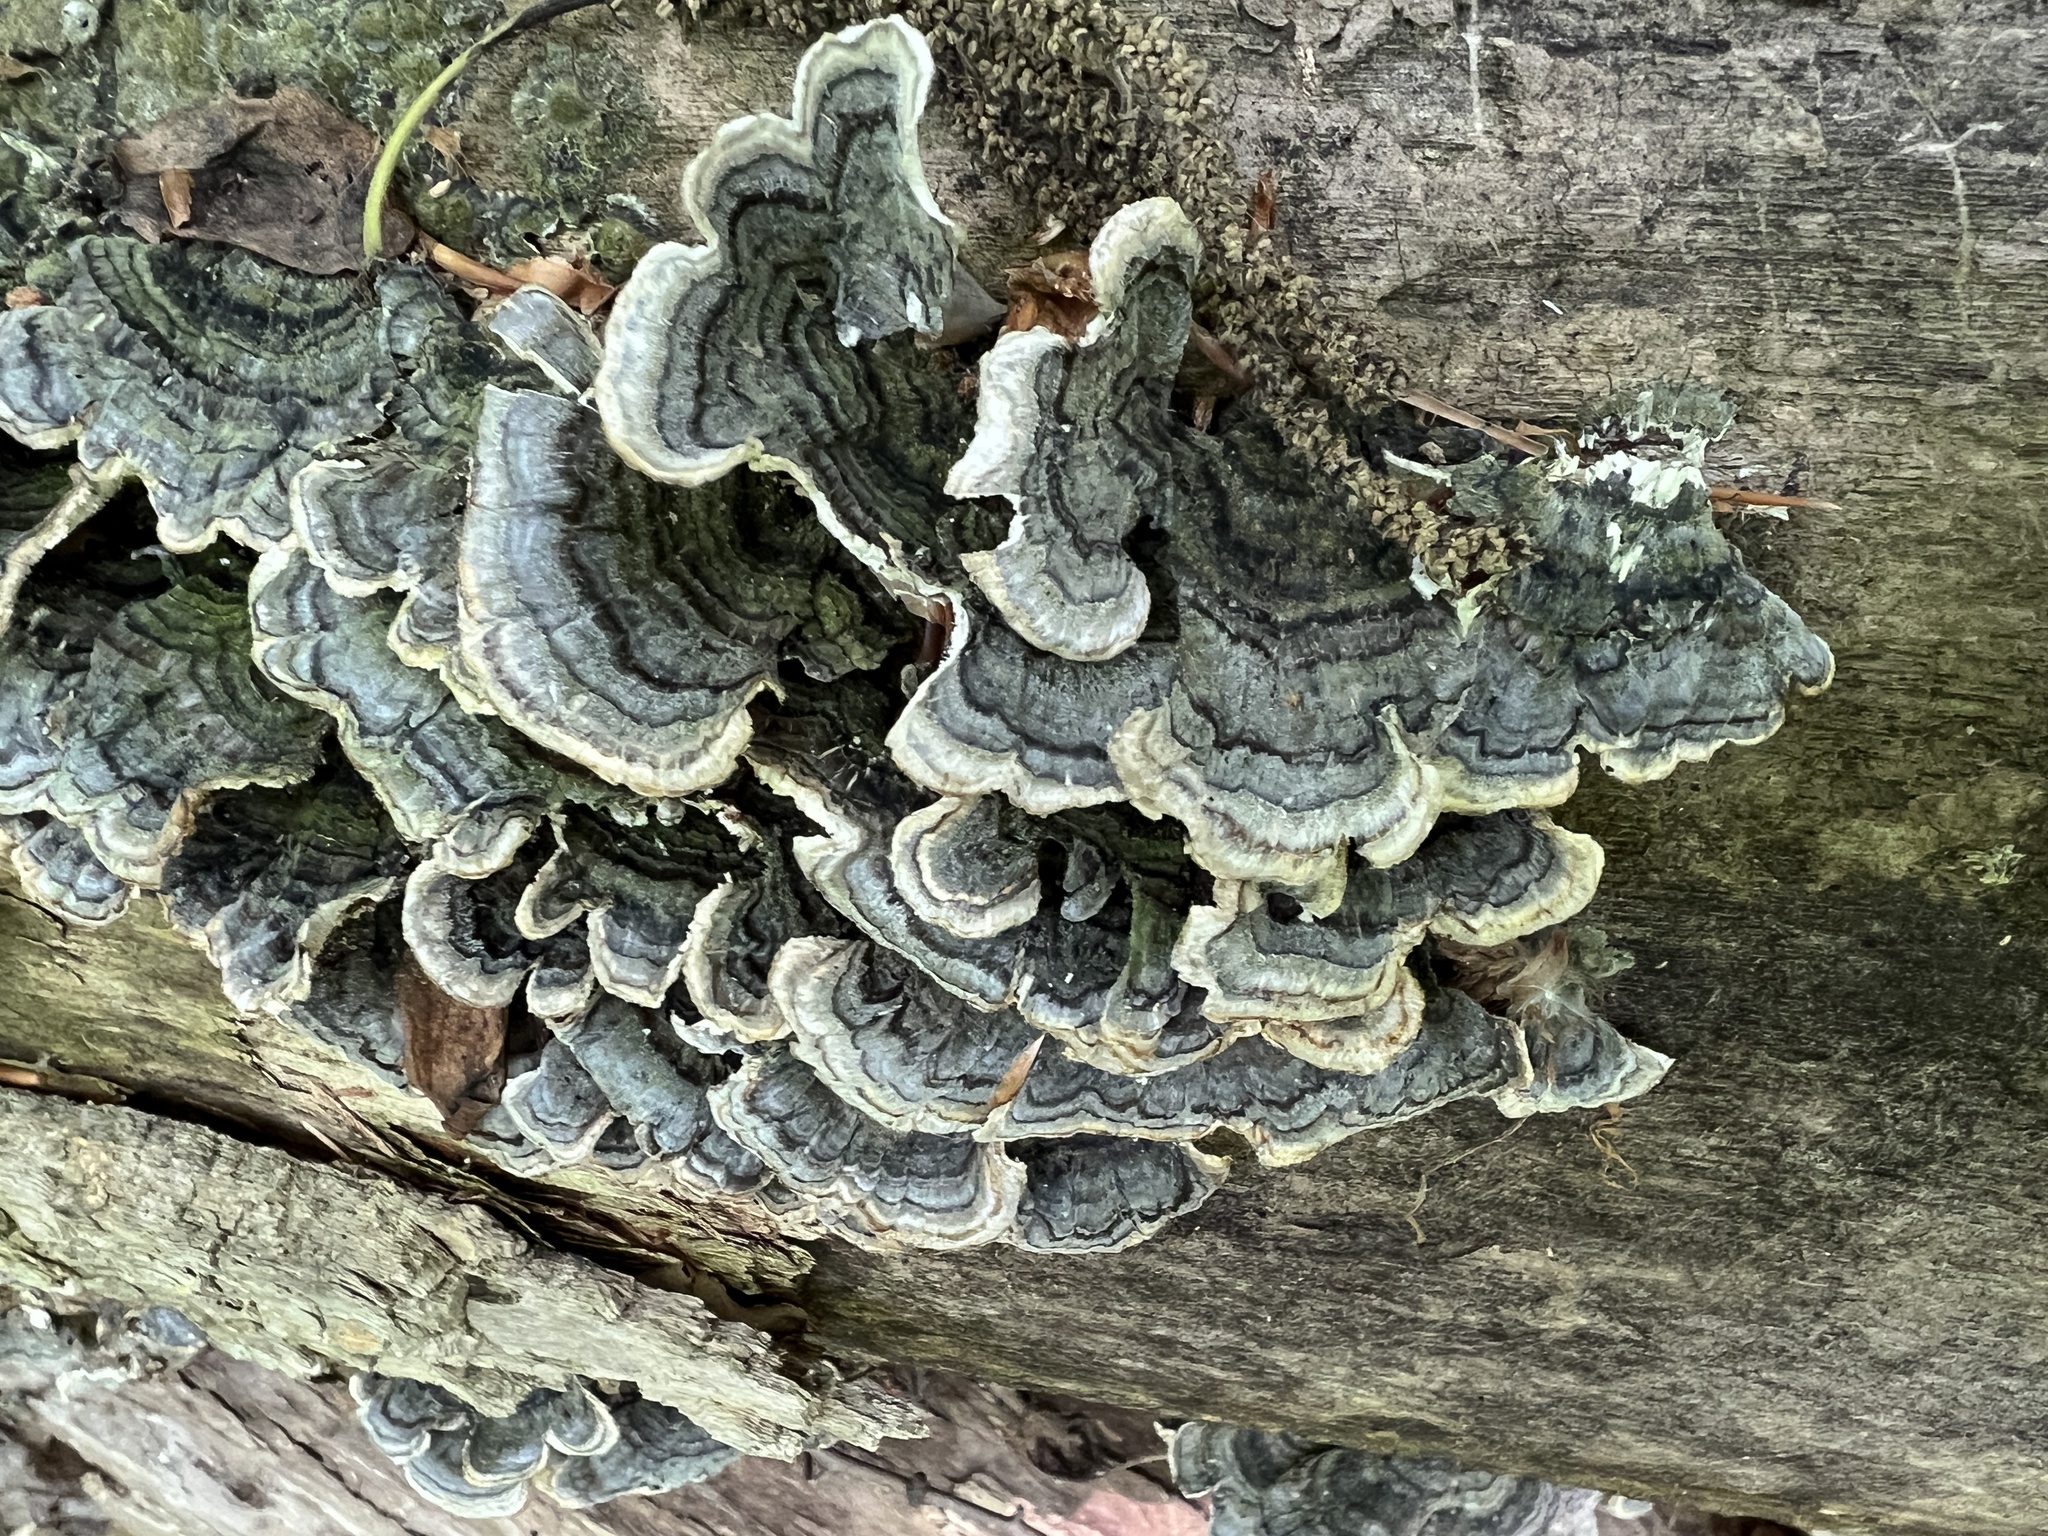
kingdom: Fungi
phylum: Basidiomycota
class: Agaricomycetes
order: Polyporales
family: Polyporaceae
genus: Trametes
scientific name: Trametes versicolor
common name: Turkeytail
